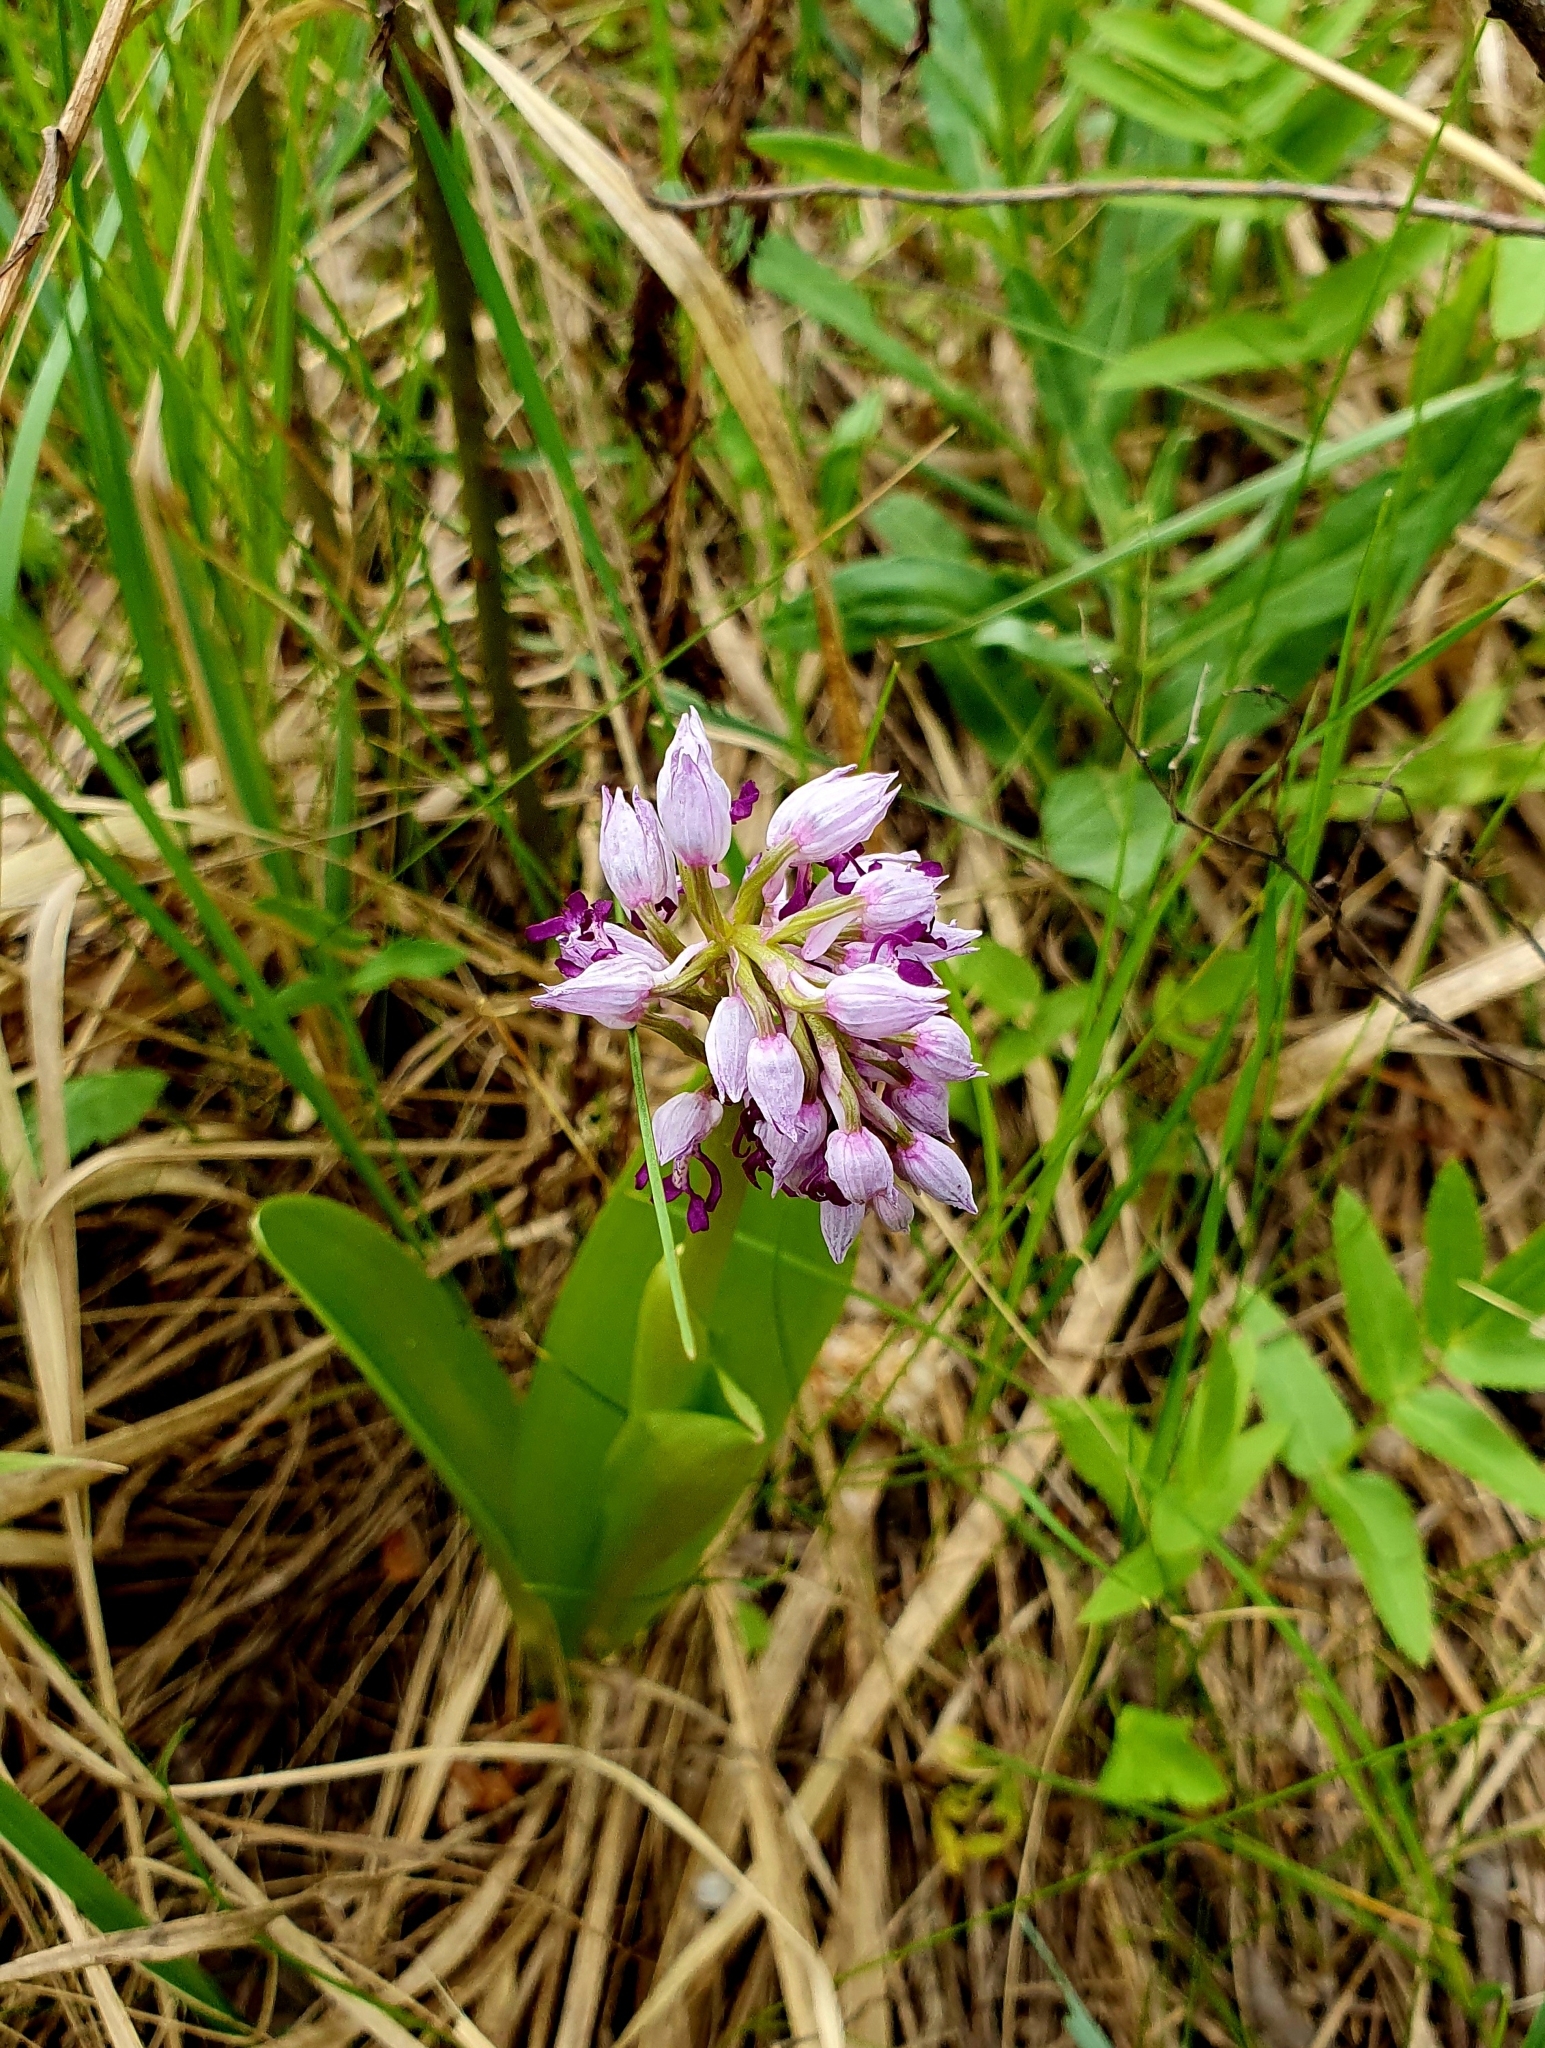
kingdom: Plantae
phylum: Tracheophyta
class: Liliopsida
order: Asparagales
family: Orchidaceae
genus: Orchis
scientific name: Orchis militaris
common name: Military orchid
